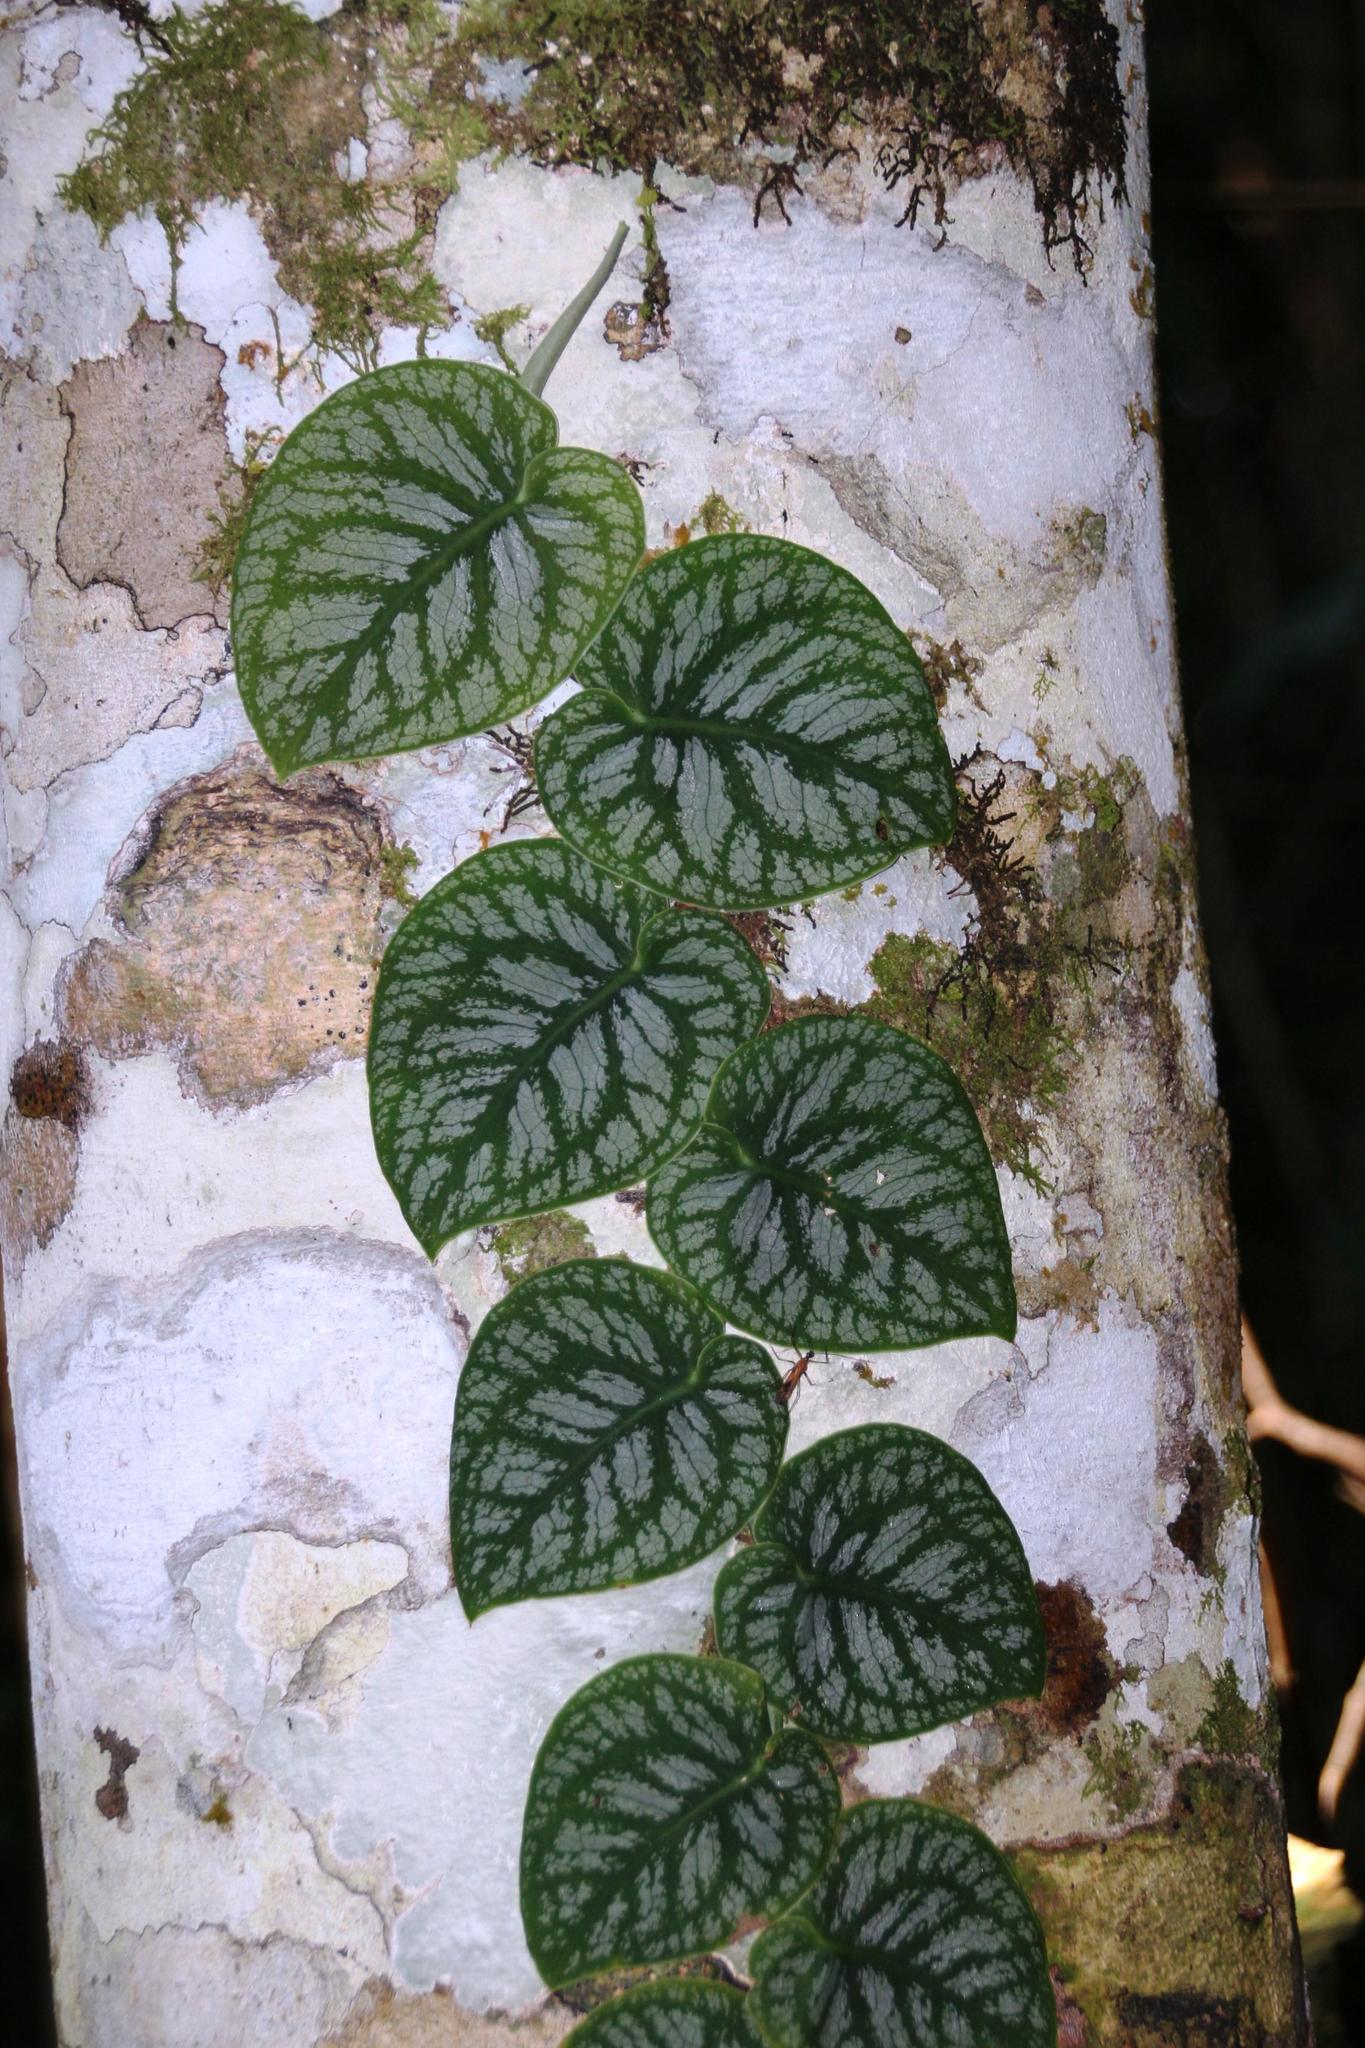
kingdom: Plantae
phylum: Tracheophyta
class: Liliopsida
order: Alismatales
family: Araceae
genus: Monstera
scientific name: Monstera dubia
